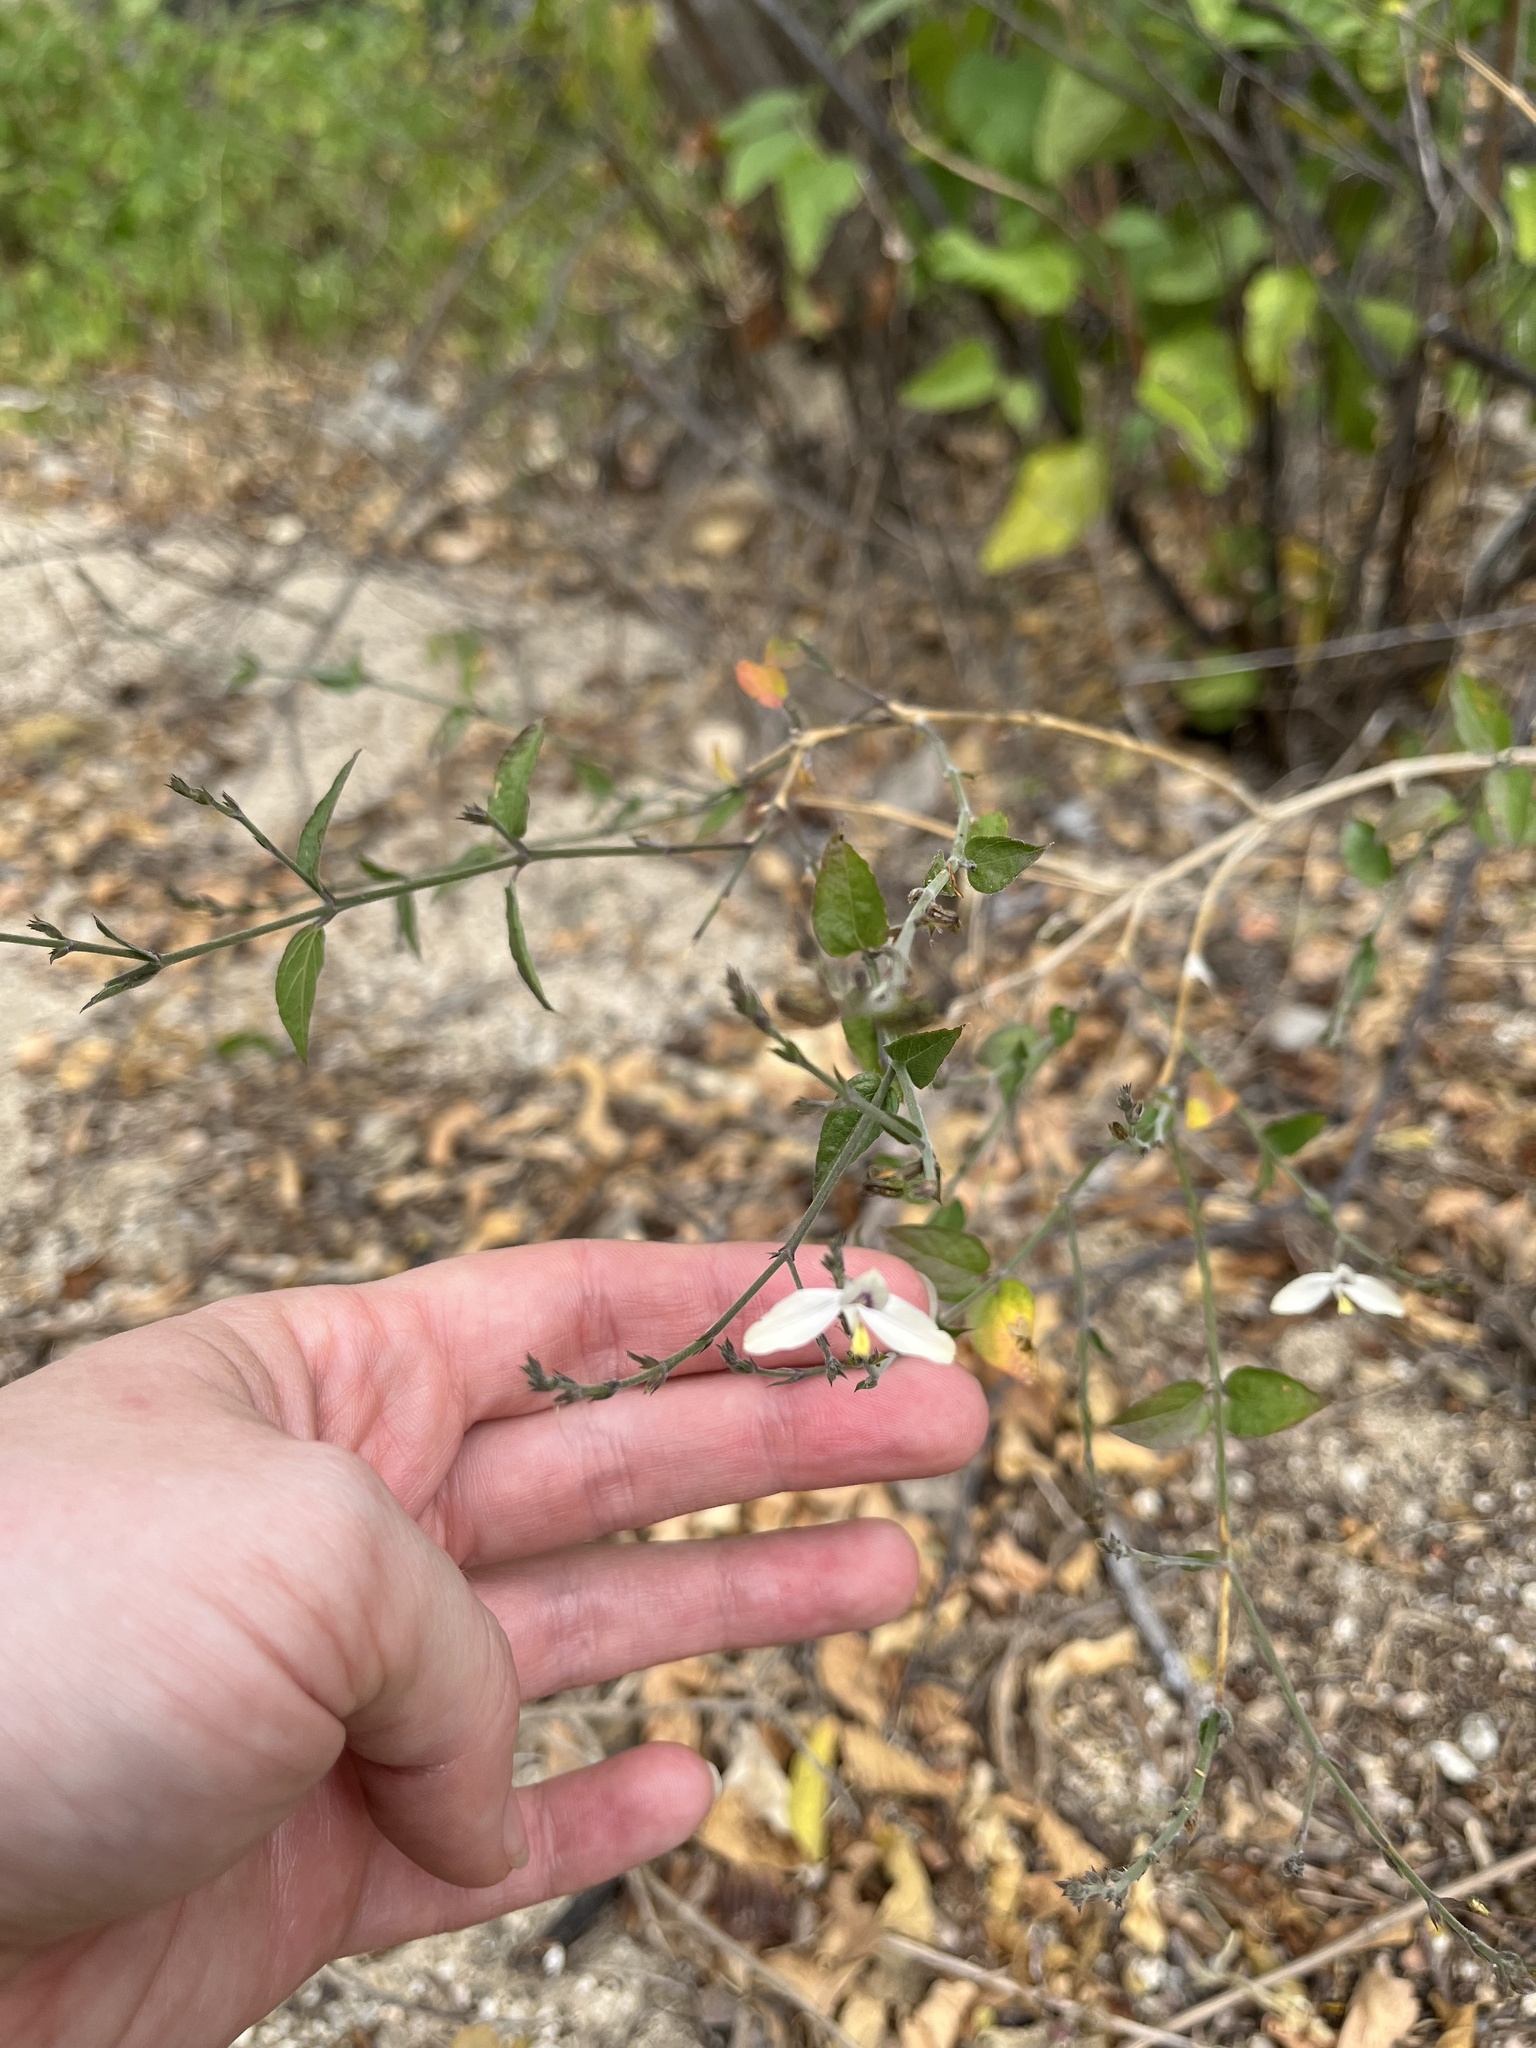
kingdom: Plantae
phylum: Tracheophyta
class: Magnoliopsida
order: Lamiales
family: Acanthaceae
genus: Carlowrightia
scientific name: Carlowrightia arizonica
